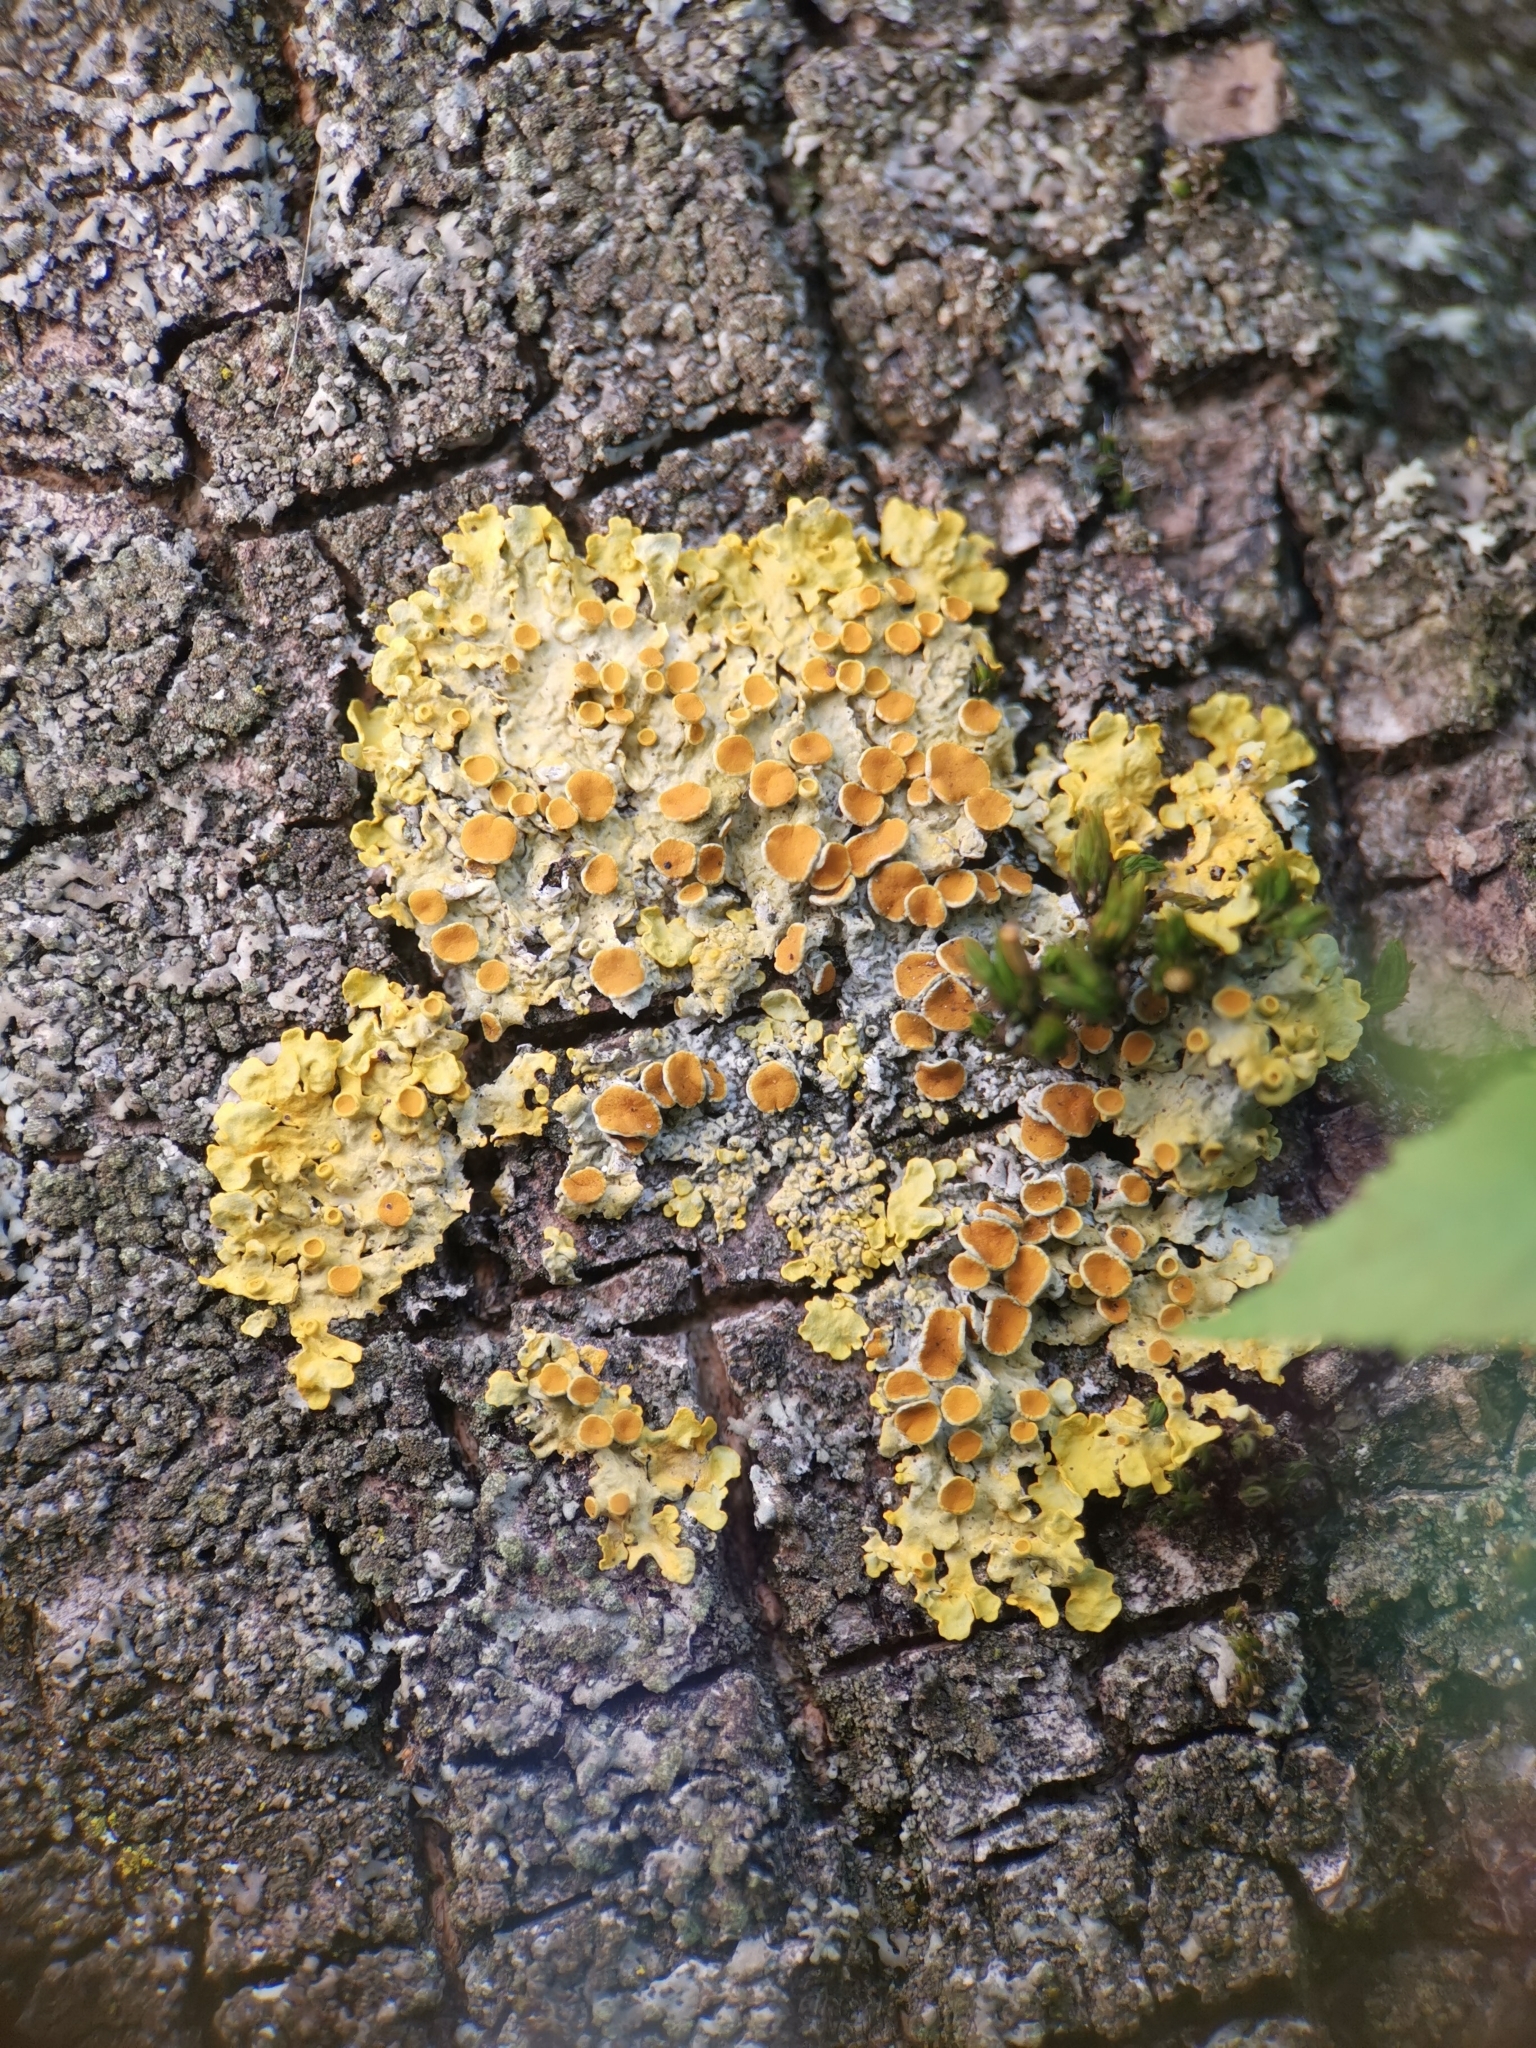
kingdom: Fungi
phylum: Ascomycota
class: Lecanoromycetes
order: Teloschistales
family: Teloschistaceae
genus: Xanthoria
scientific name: Xanthoria parietina
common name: Common orange lichen
